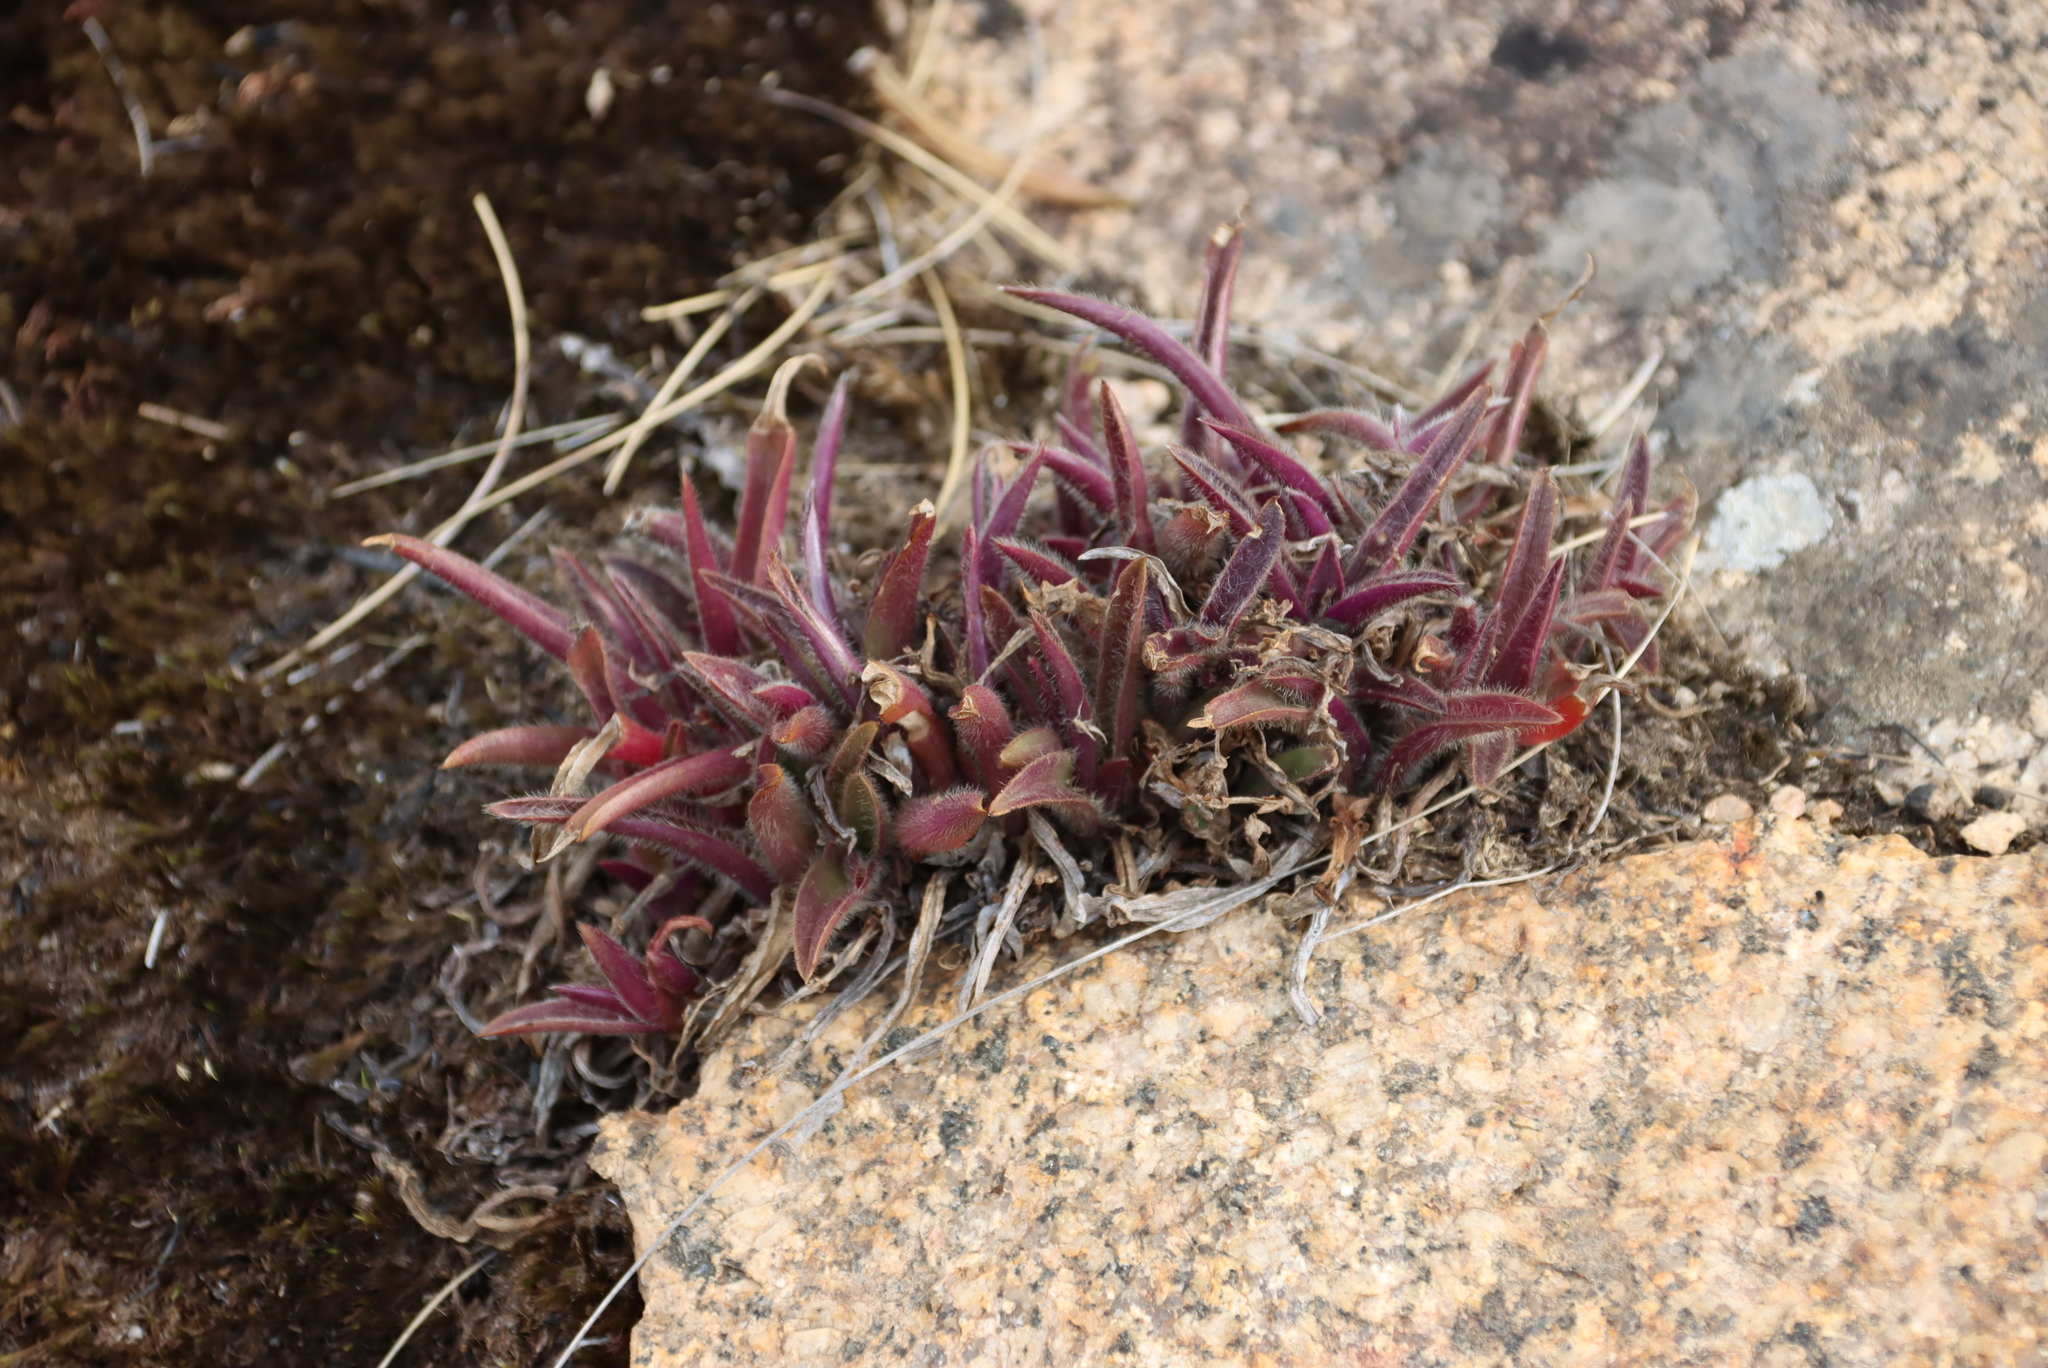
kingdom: Plantae
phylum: Tracheophyta
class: Liliopsida
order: Commelinales
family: Commelinaceae
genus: Cyanotis
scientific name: Cyanotis lapidosa
